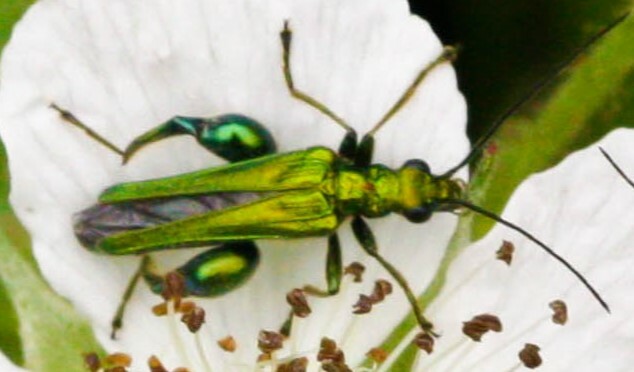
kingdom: Animalia
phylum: Arthropoda
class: Insecta
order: Coleoptera
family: Oedemeridae
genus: Oedemera
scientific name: Oedemera nobilis
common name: Swollen-thighed beetle
